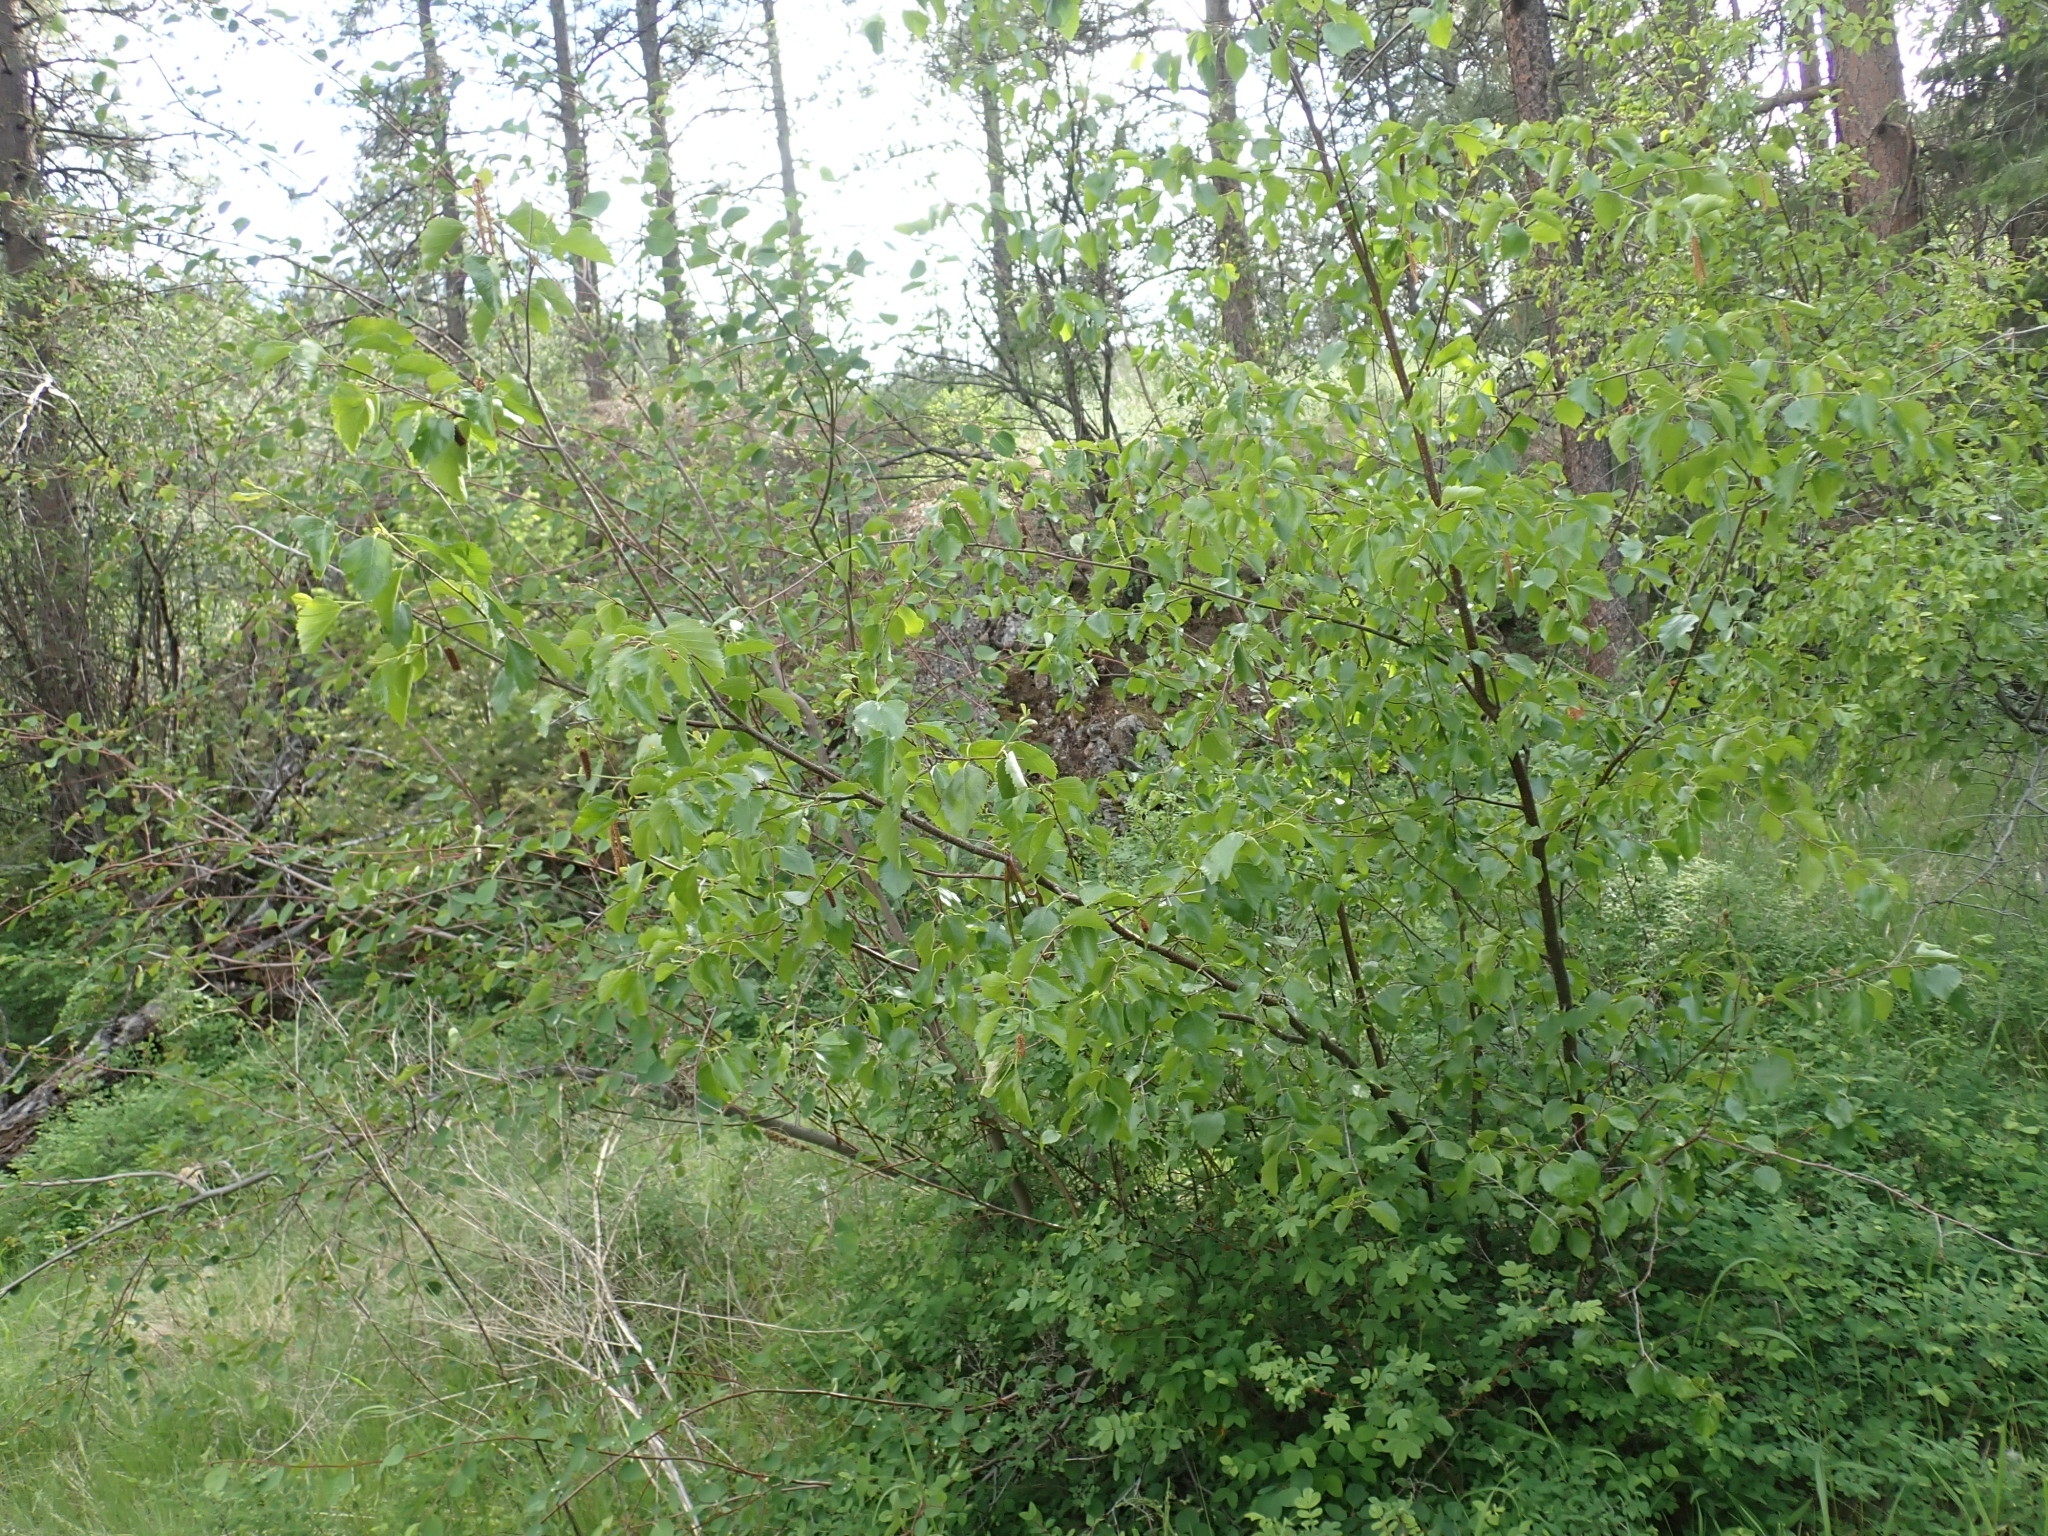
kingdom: Plantae
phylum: Tracheophyta
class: Magnoliopsida
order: Fagales
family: Betulaceae
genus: Betula
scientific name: Betula occidentalis
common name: River birch
